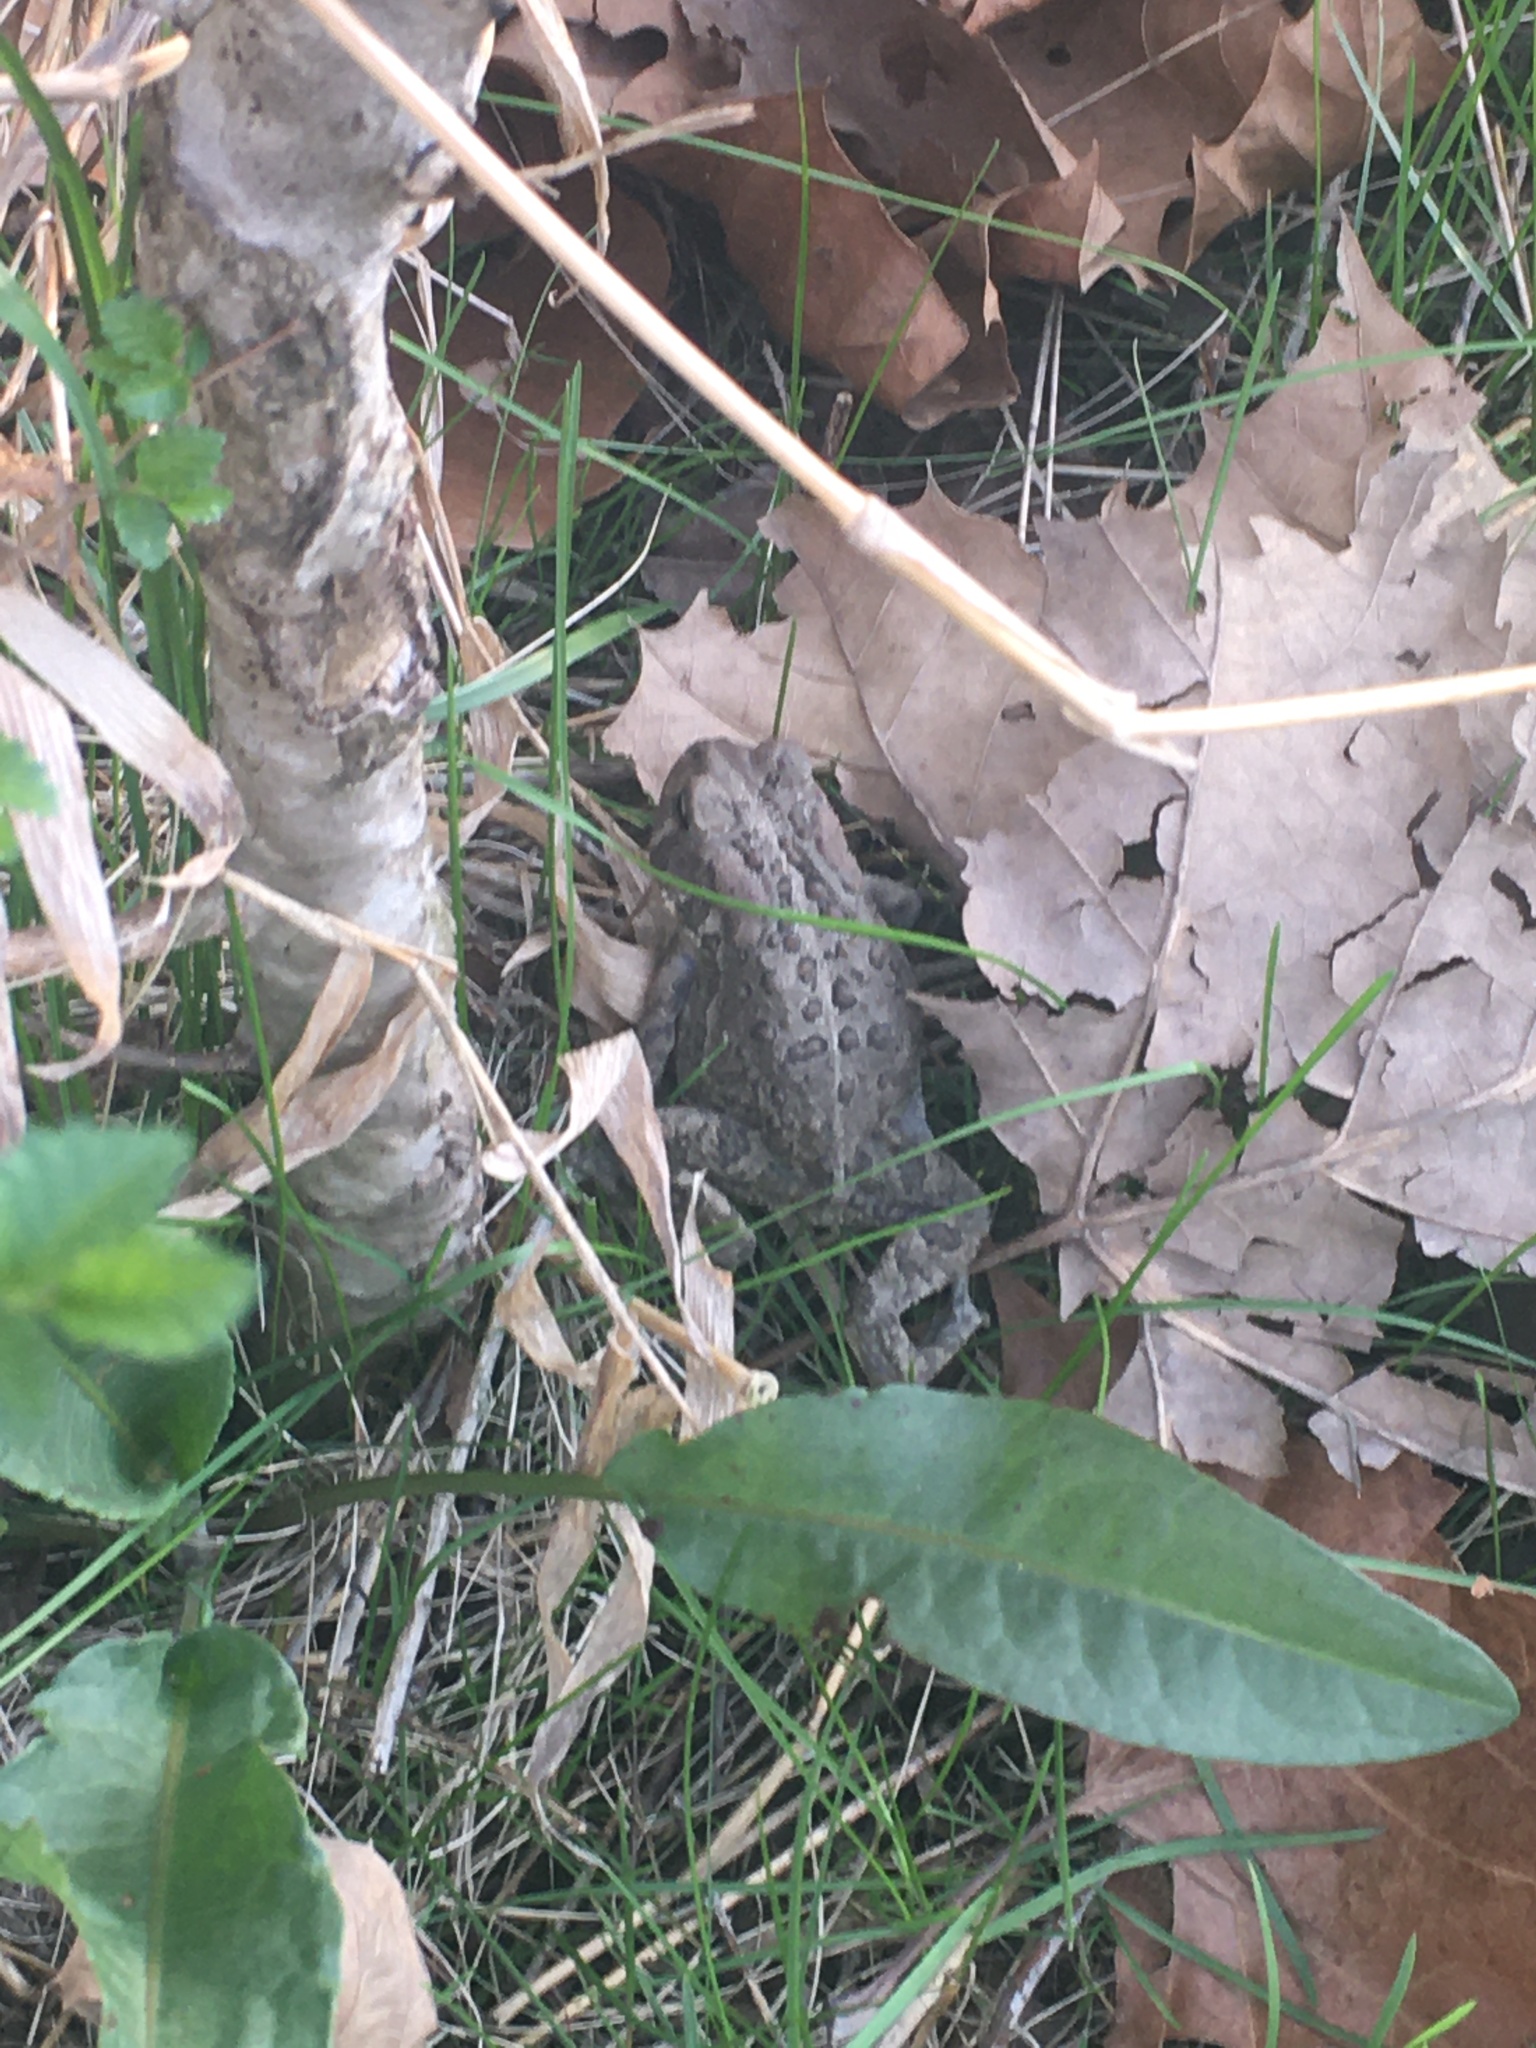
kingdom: Animalia
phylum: Chordata
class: Amphibia
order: Anura
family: Bufonidae
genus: Anaxyrus
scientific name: Anaxyrus americanus
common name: American toad
